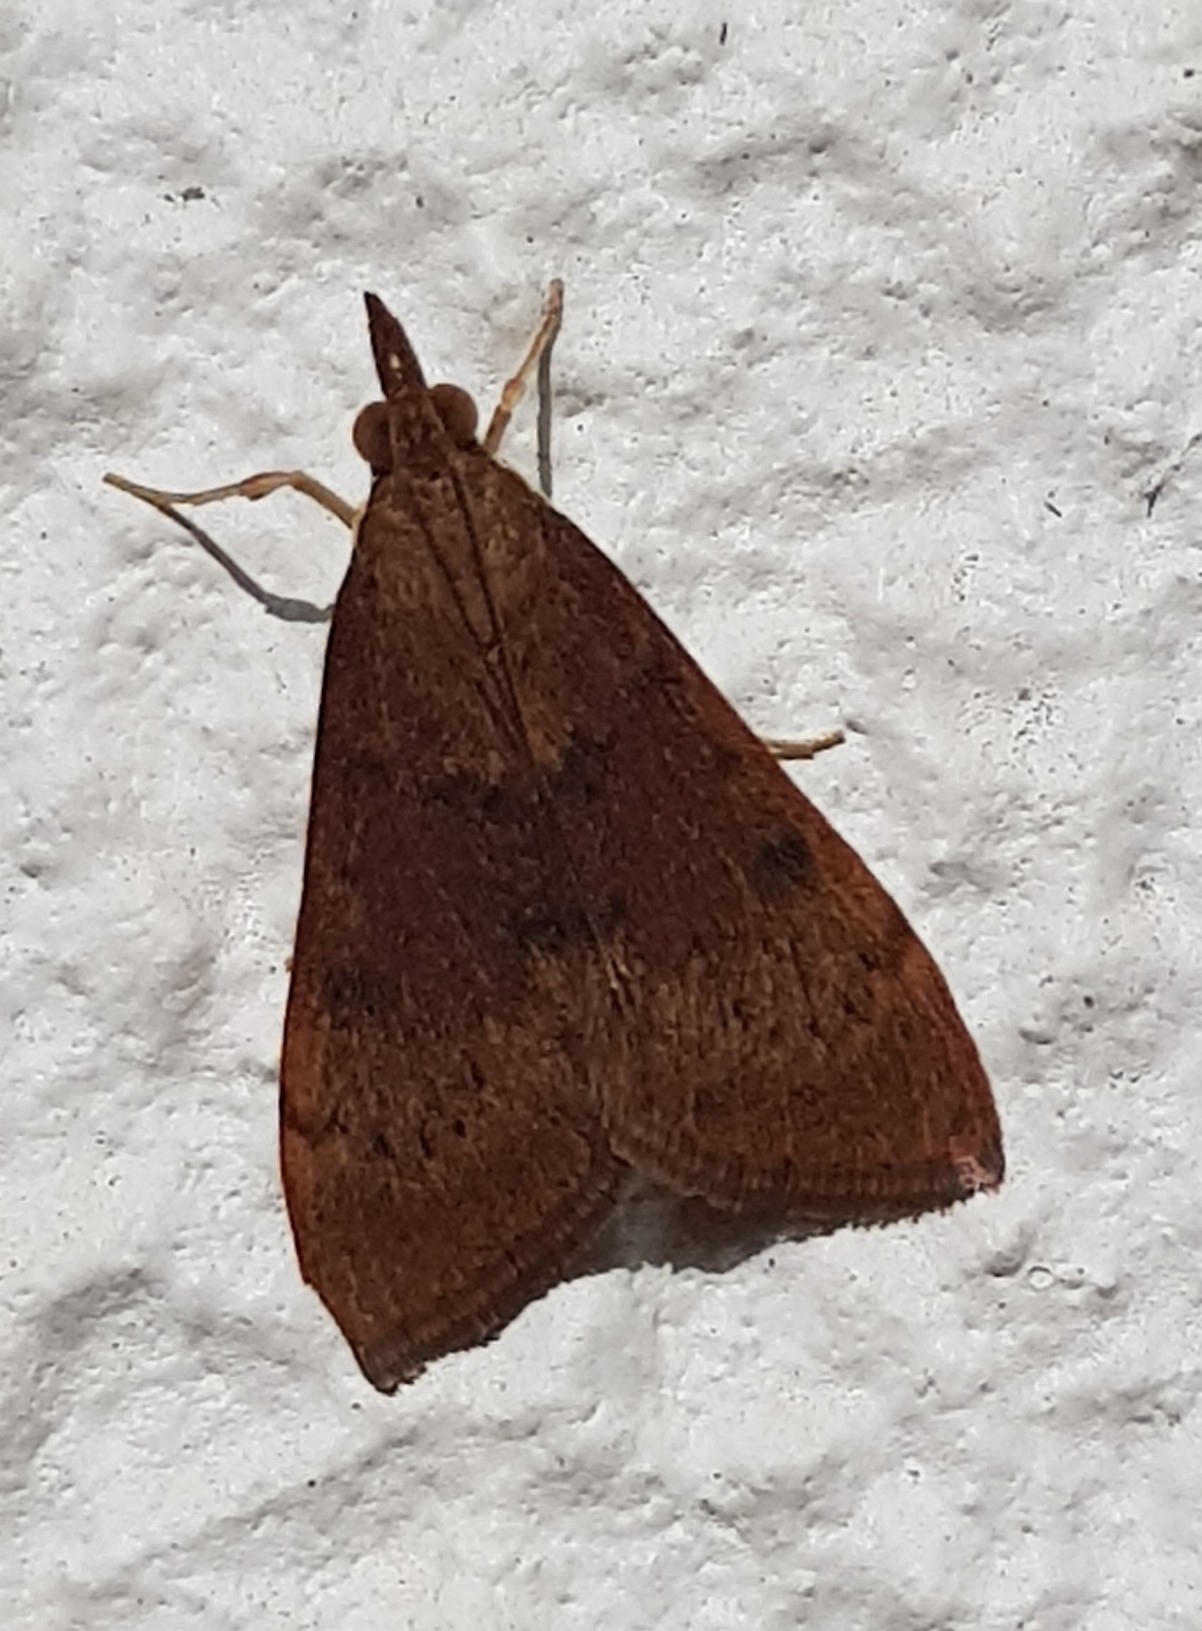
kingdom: Animalia
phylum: Arthropoda
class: Insecta
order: Lepidoptera
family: Crambidae
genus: Uresiphita
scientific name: Uresiphita gilvata
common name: Yellow-underwing pearl
